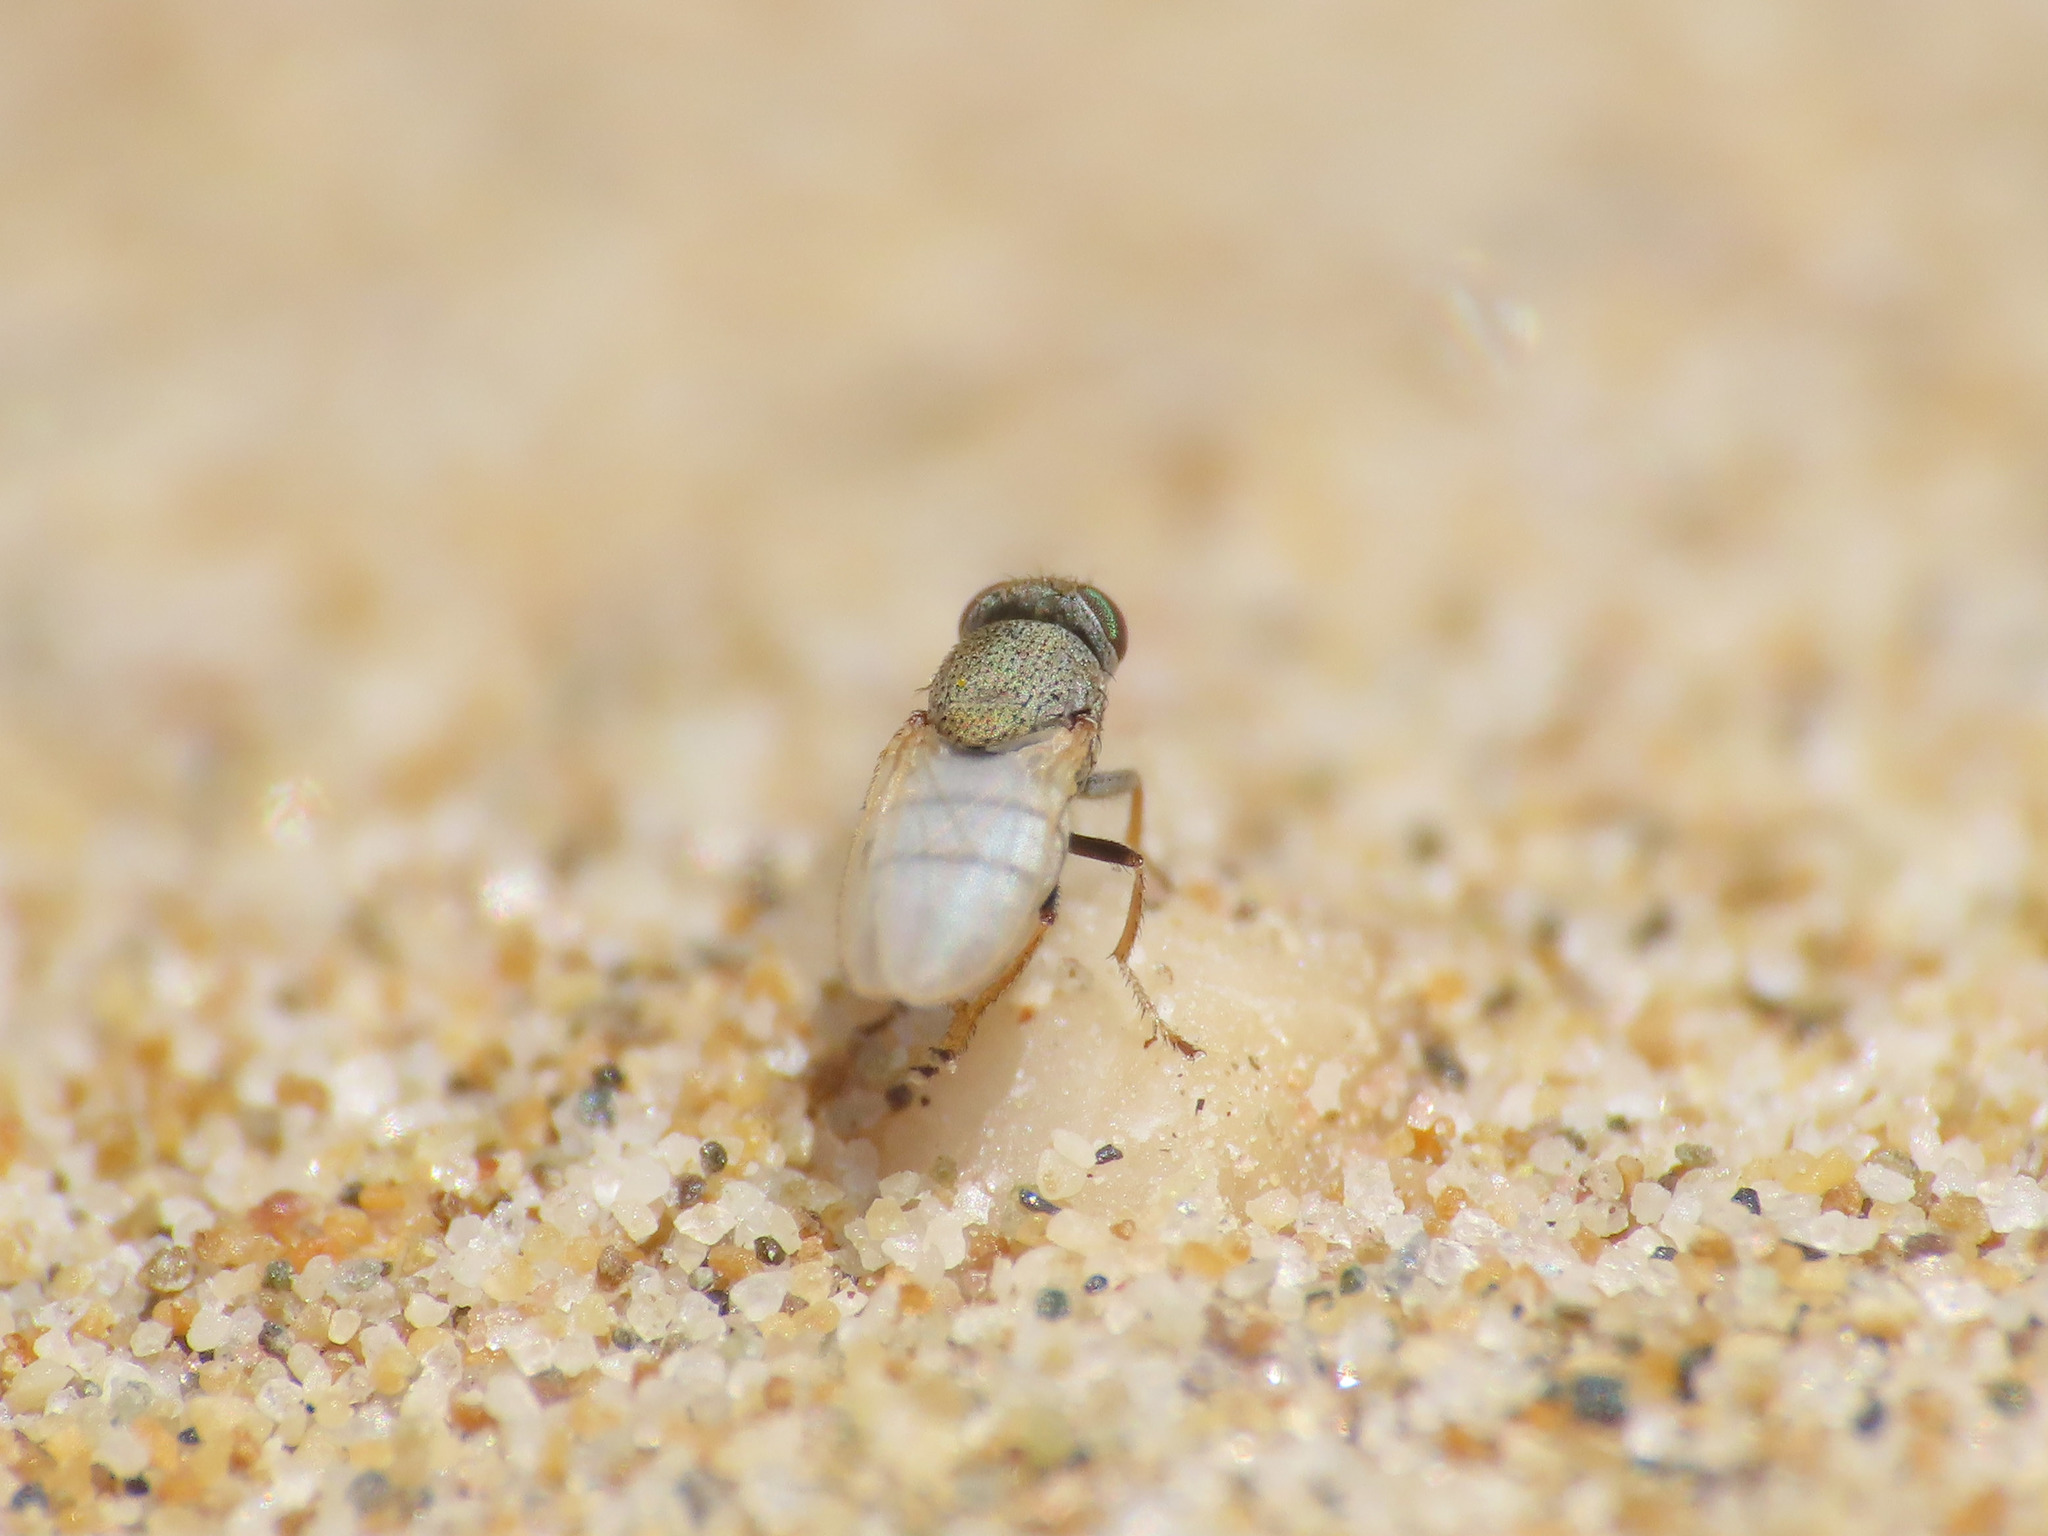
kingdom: Animalia
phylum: Arthropoda
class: Insecta
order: Diptera
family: Ephydridae
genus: Hecamede
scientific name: Hecamede albicans
